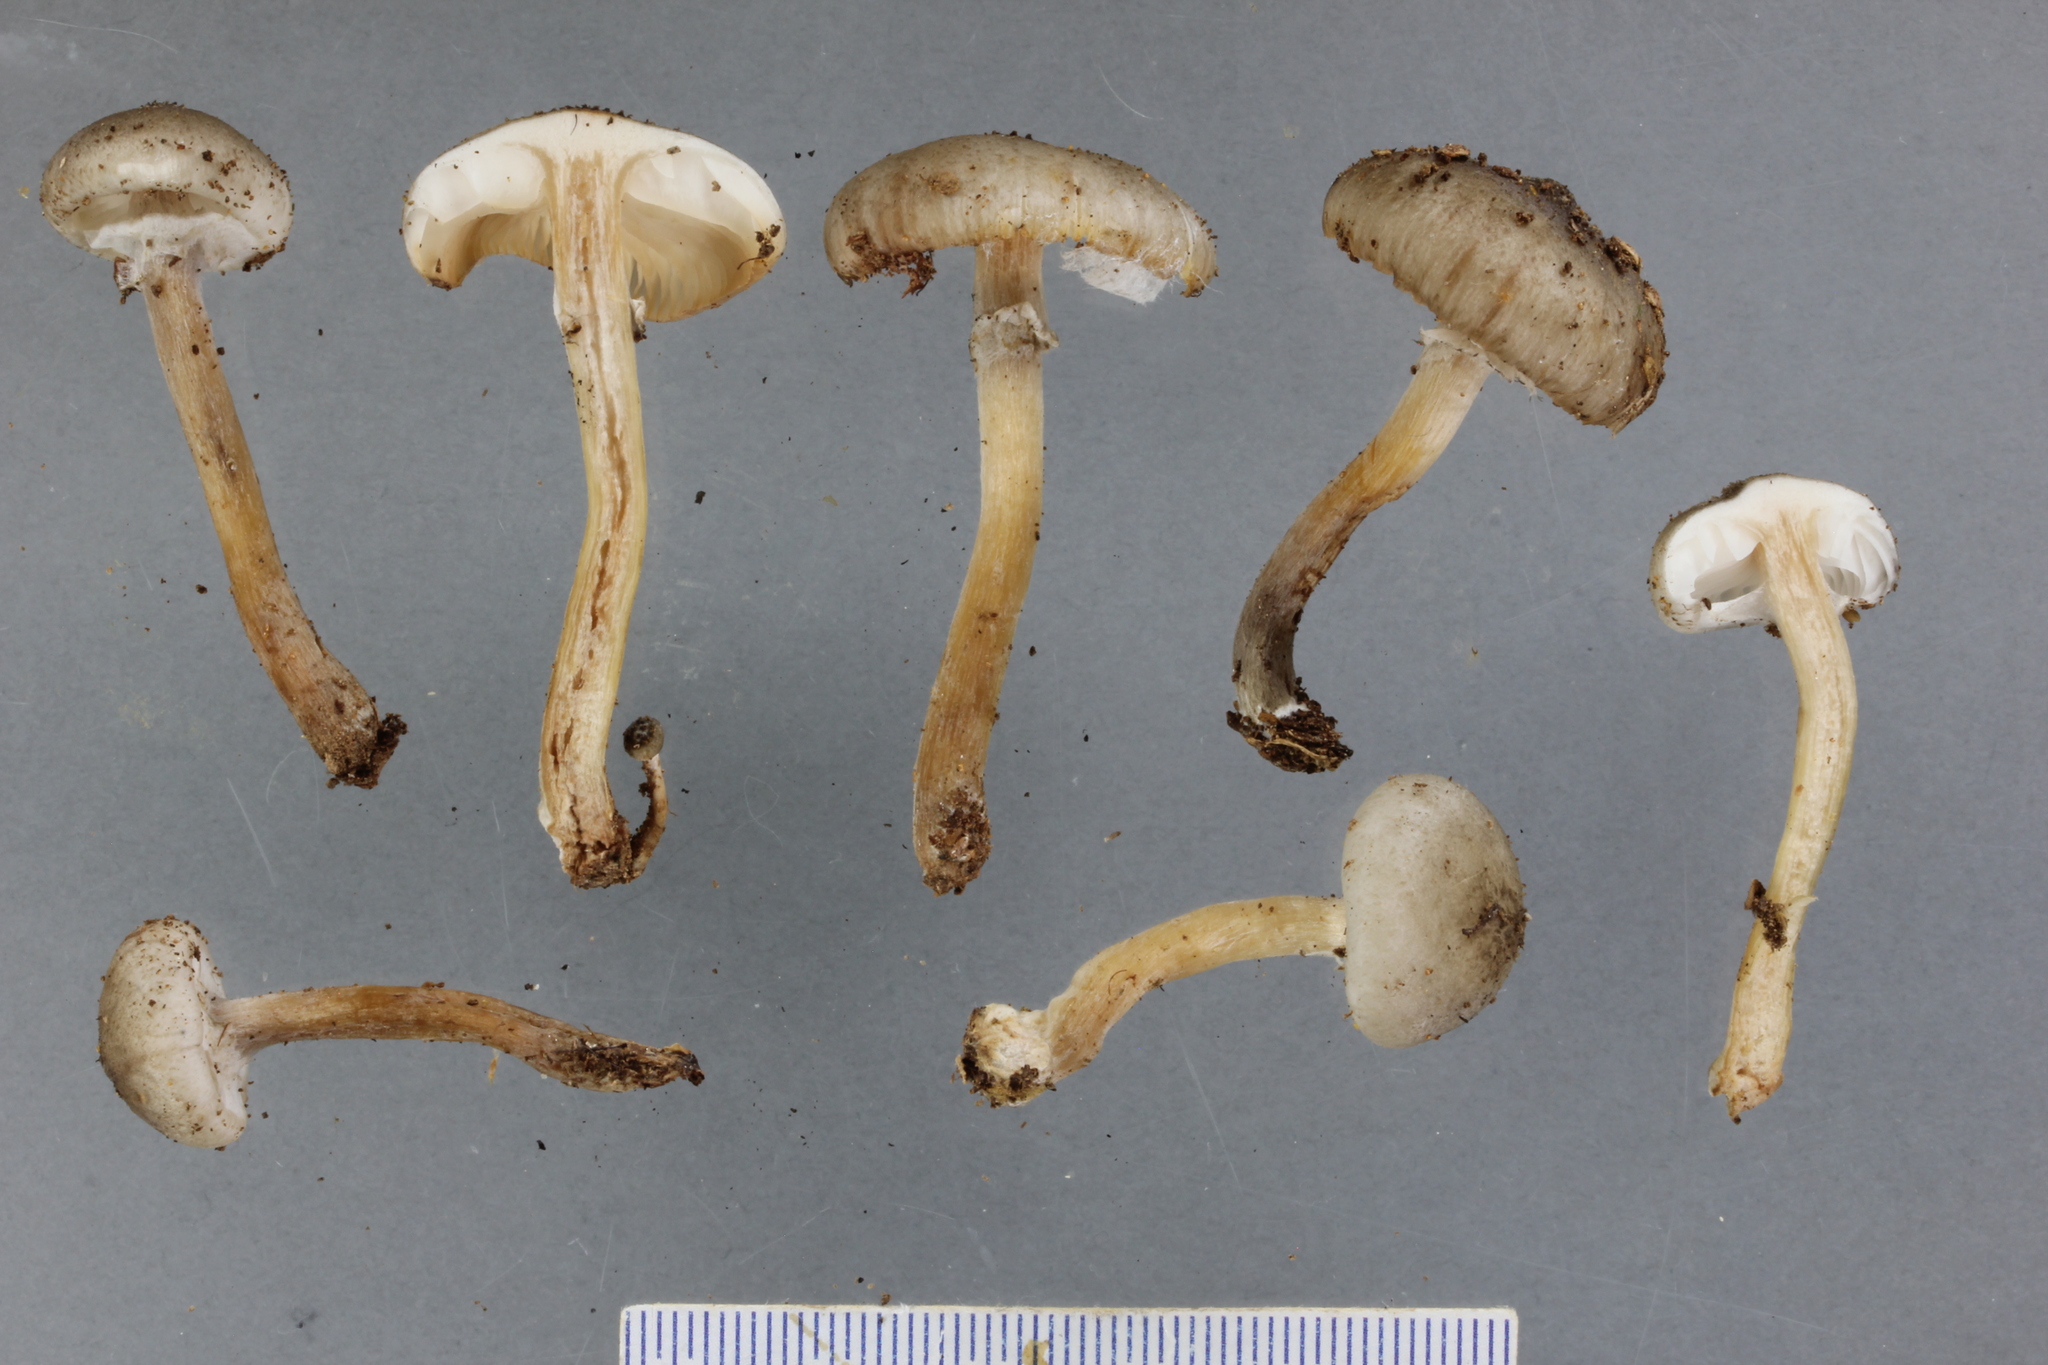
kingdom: Fungi
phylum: Basidiomycota
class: Agaricomycetes
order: Agaricales
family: Physalacriaceae
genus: Armillaria
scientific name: Armillaria novae-zelandiae
